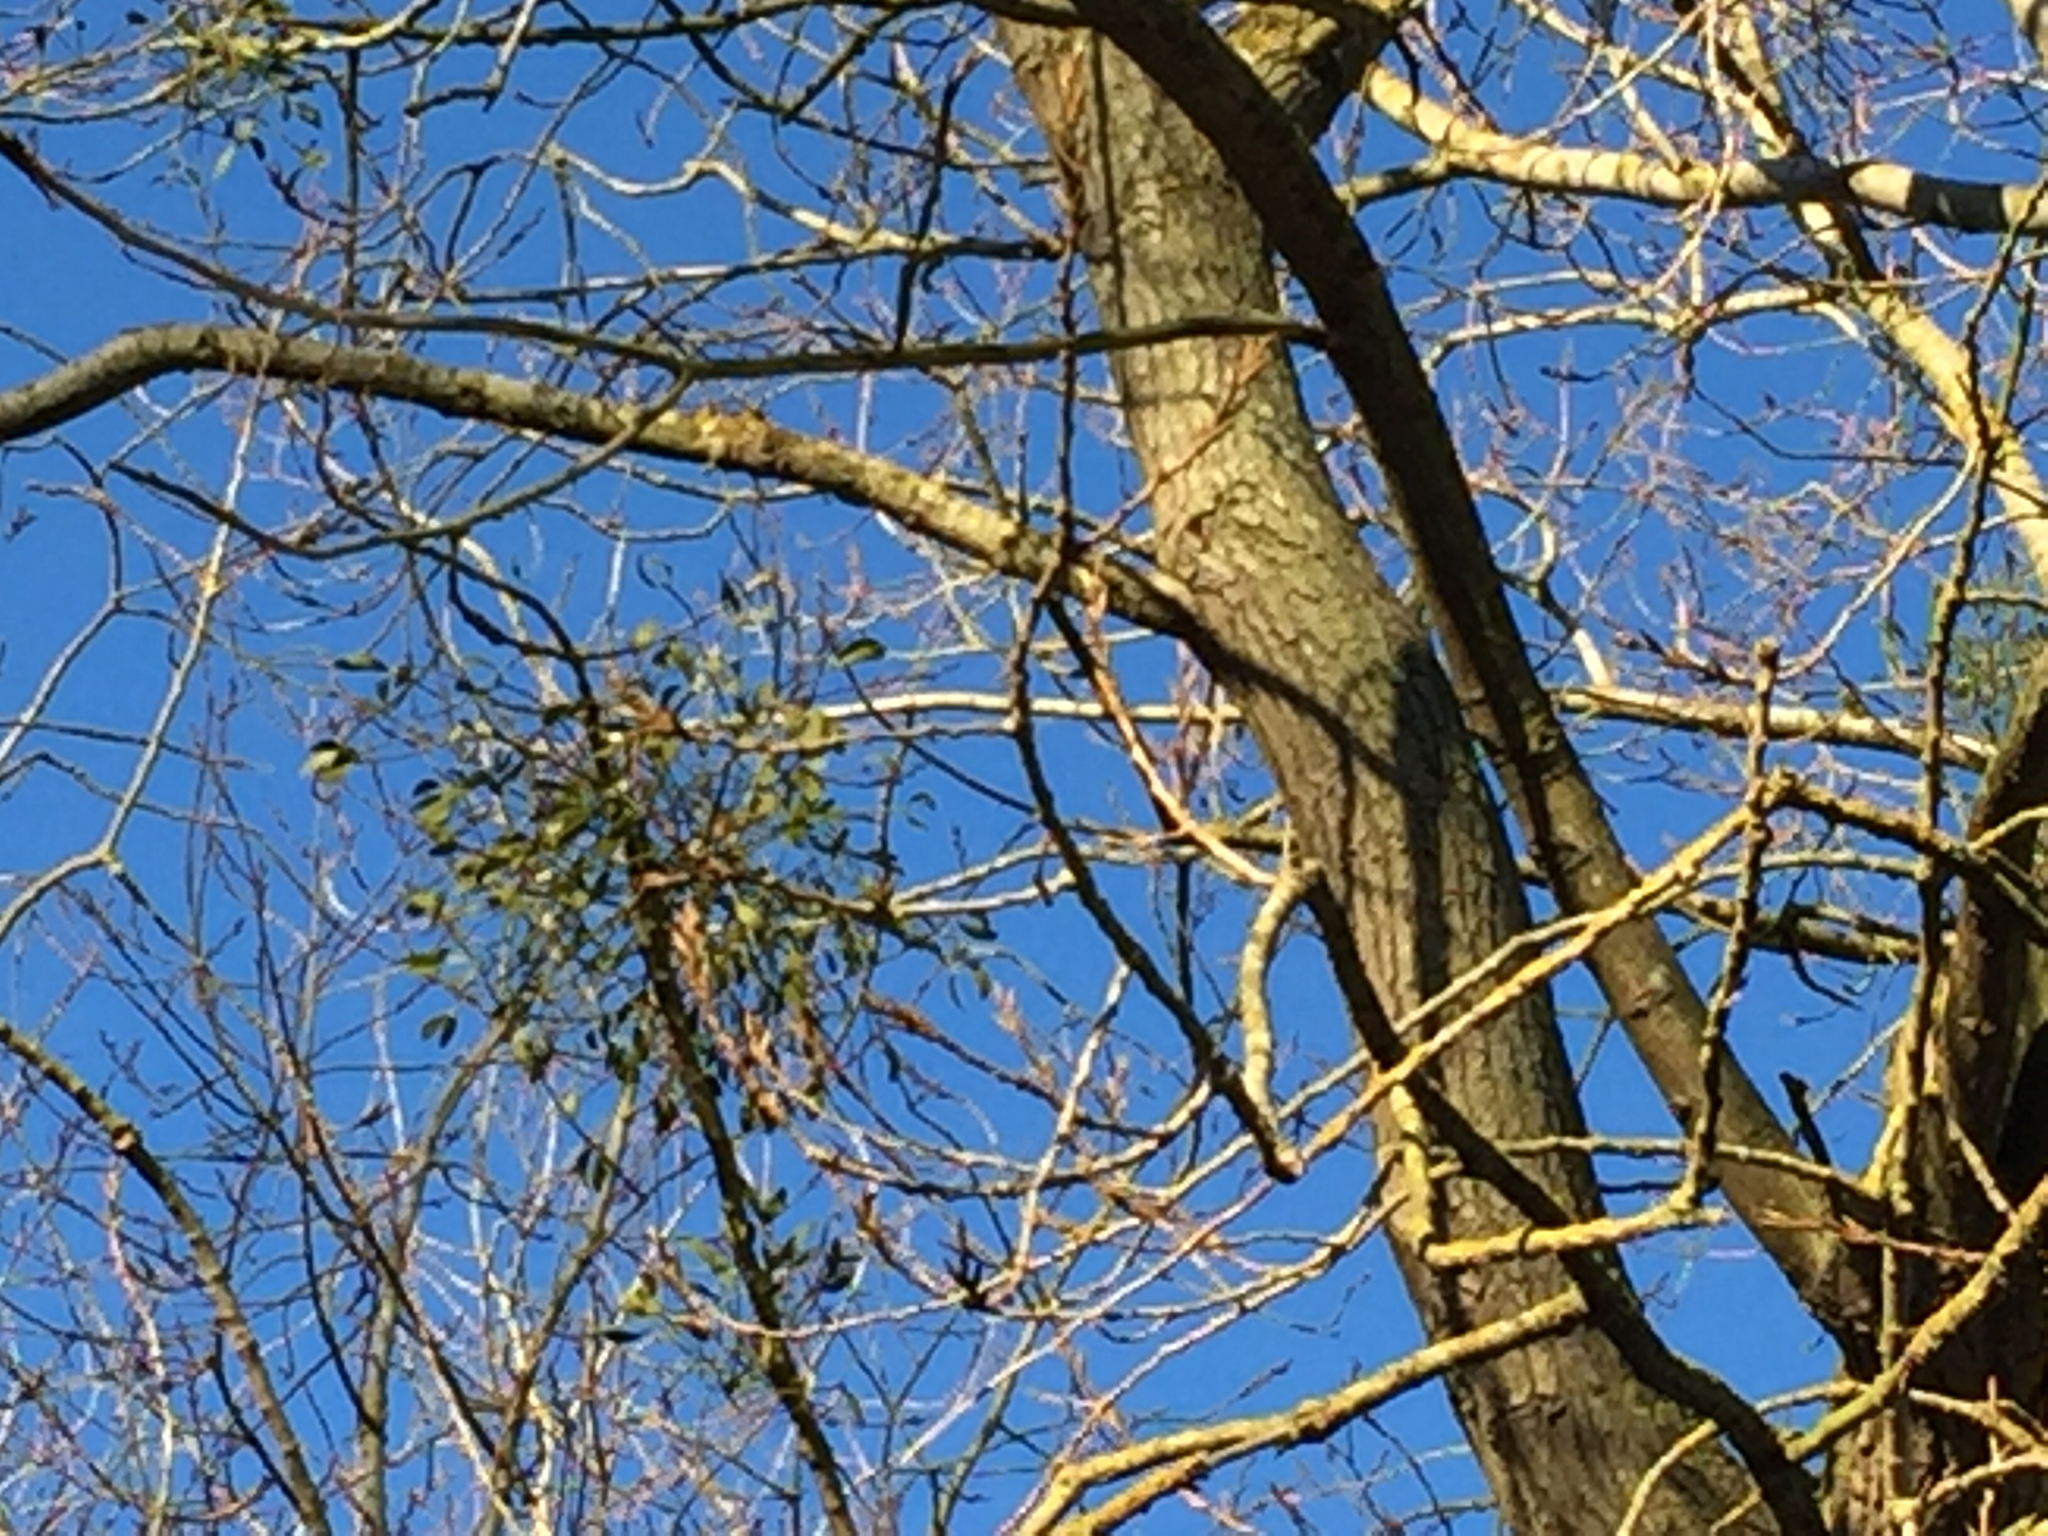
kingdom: Plantae
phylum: Tracheophyta
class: Magnoliopsida
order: Santalales
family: Viscaceae
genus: Viscum
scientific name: Viscum album
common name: Mistletoe
